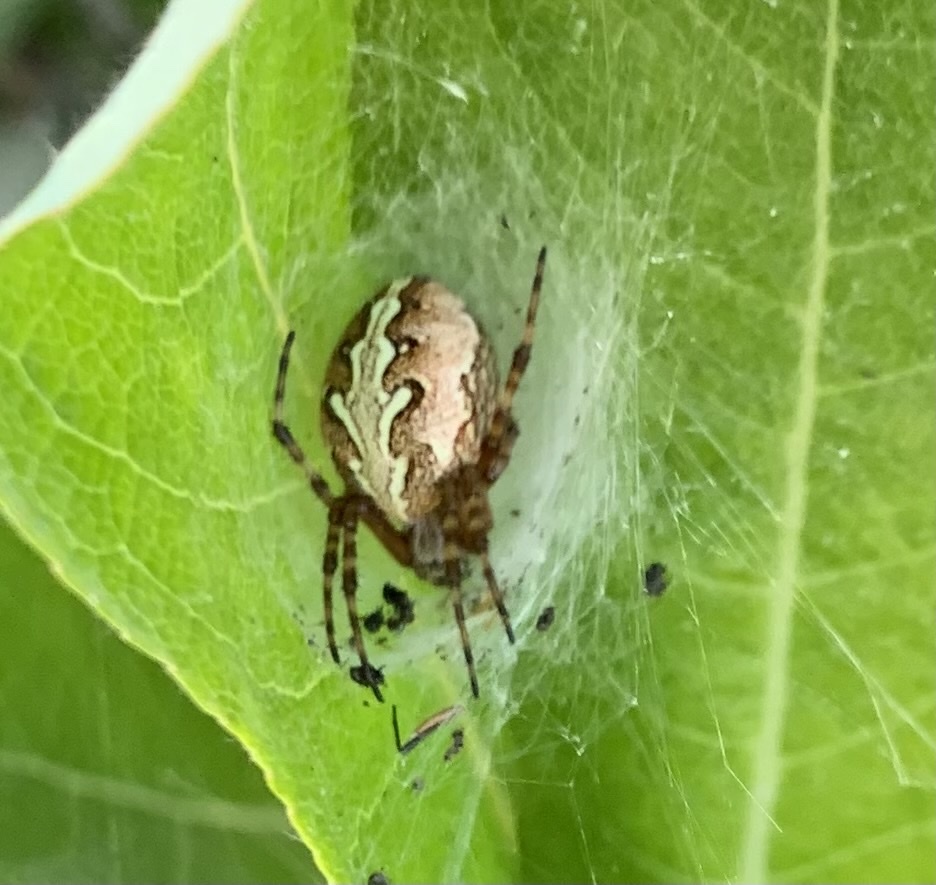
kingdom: Animalia
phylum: Arthropoda
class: Arachnida
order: Araneae
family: Araneidae
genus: Aculepeira
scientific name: Aculepeira packardi
